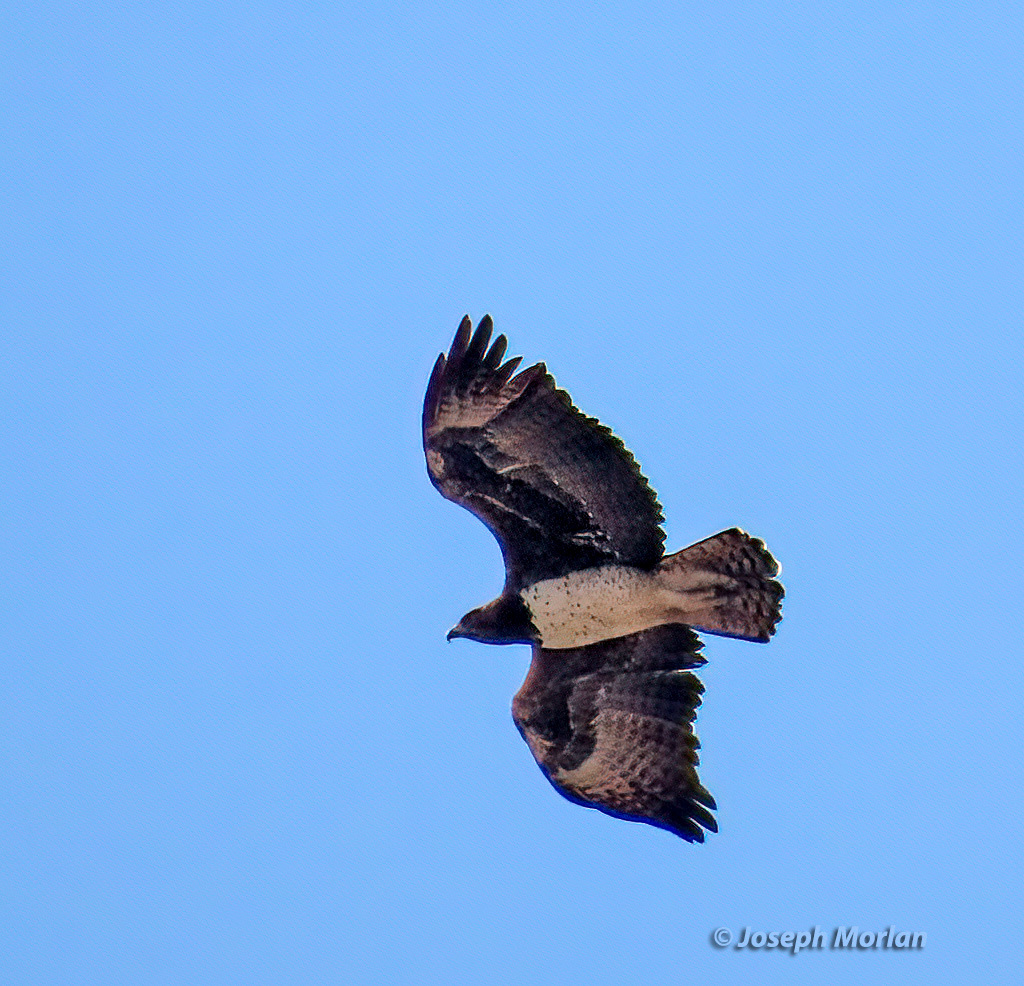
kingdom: Animalia
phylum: Chordata
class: Aves
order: Accipitriformes
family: Accipitridae
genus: Polemaetus
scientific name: Polemaetus bellicosus
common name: Martial eagle
